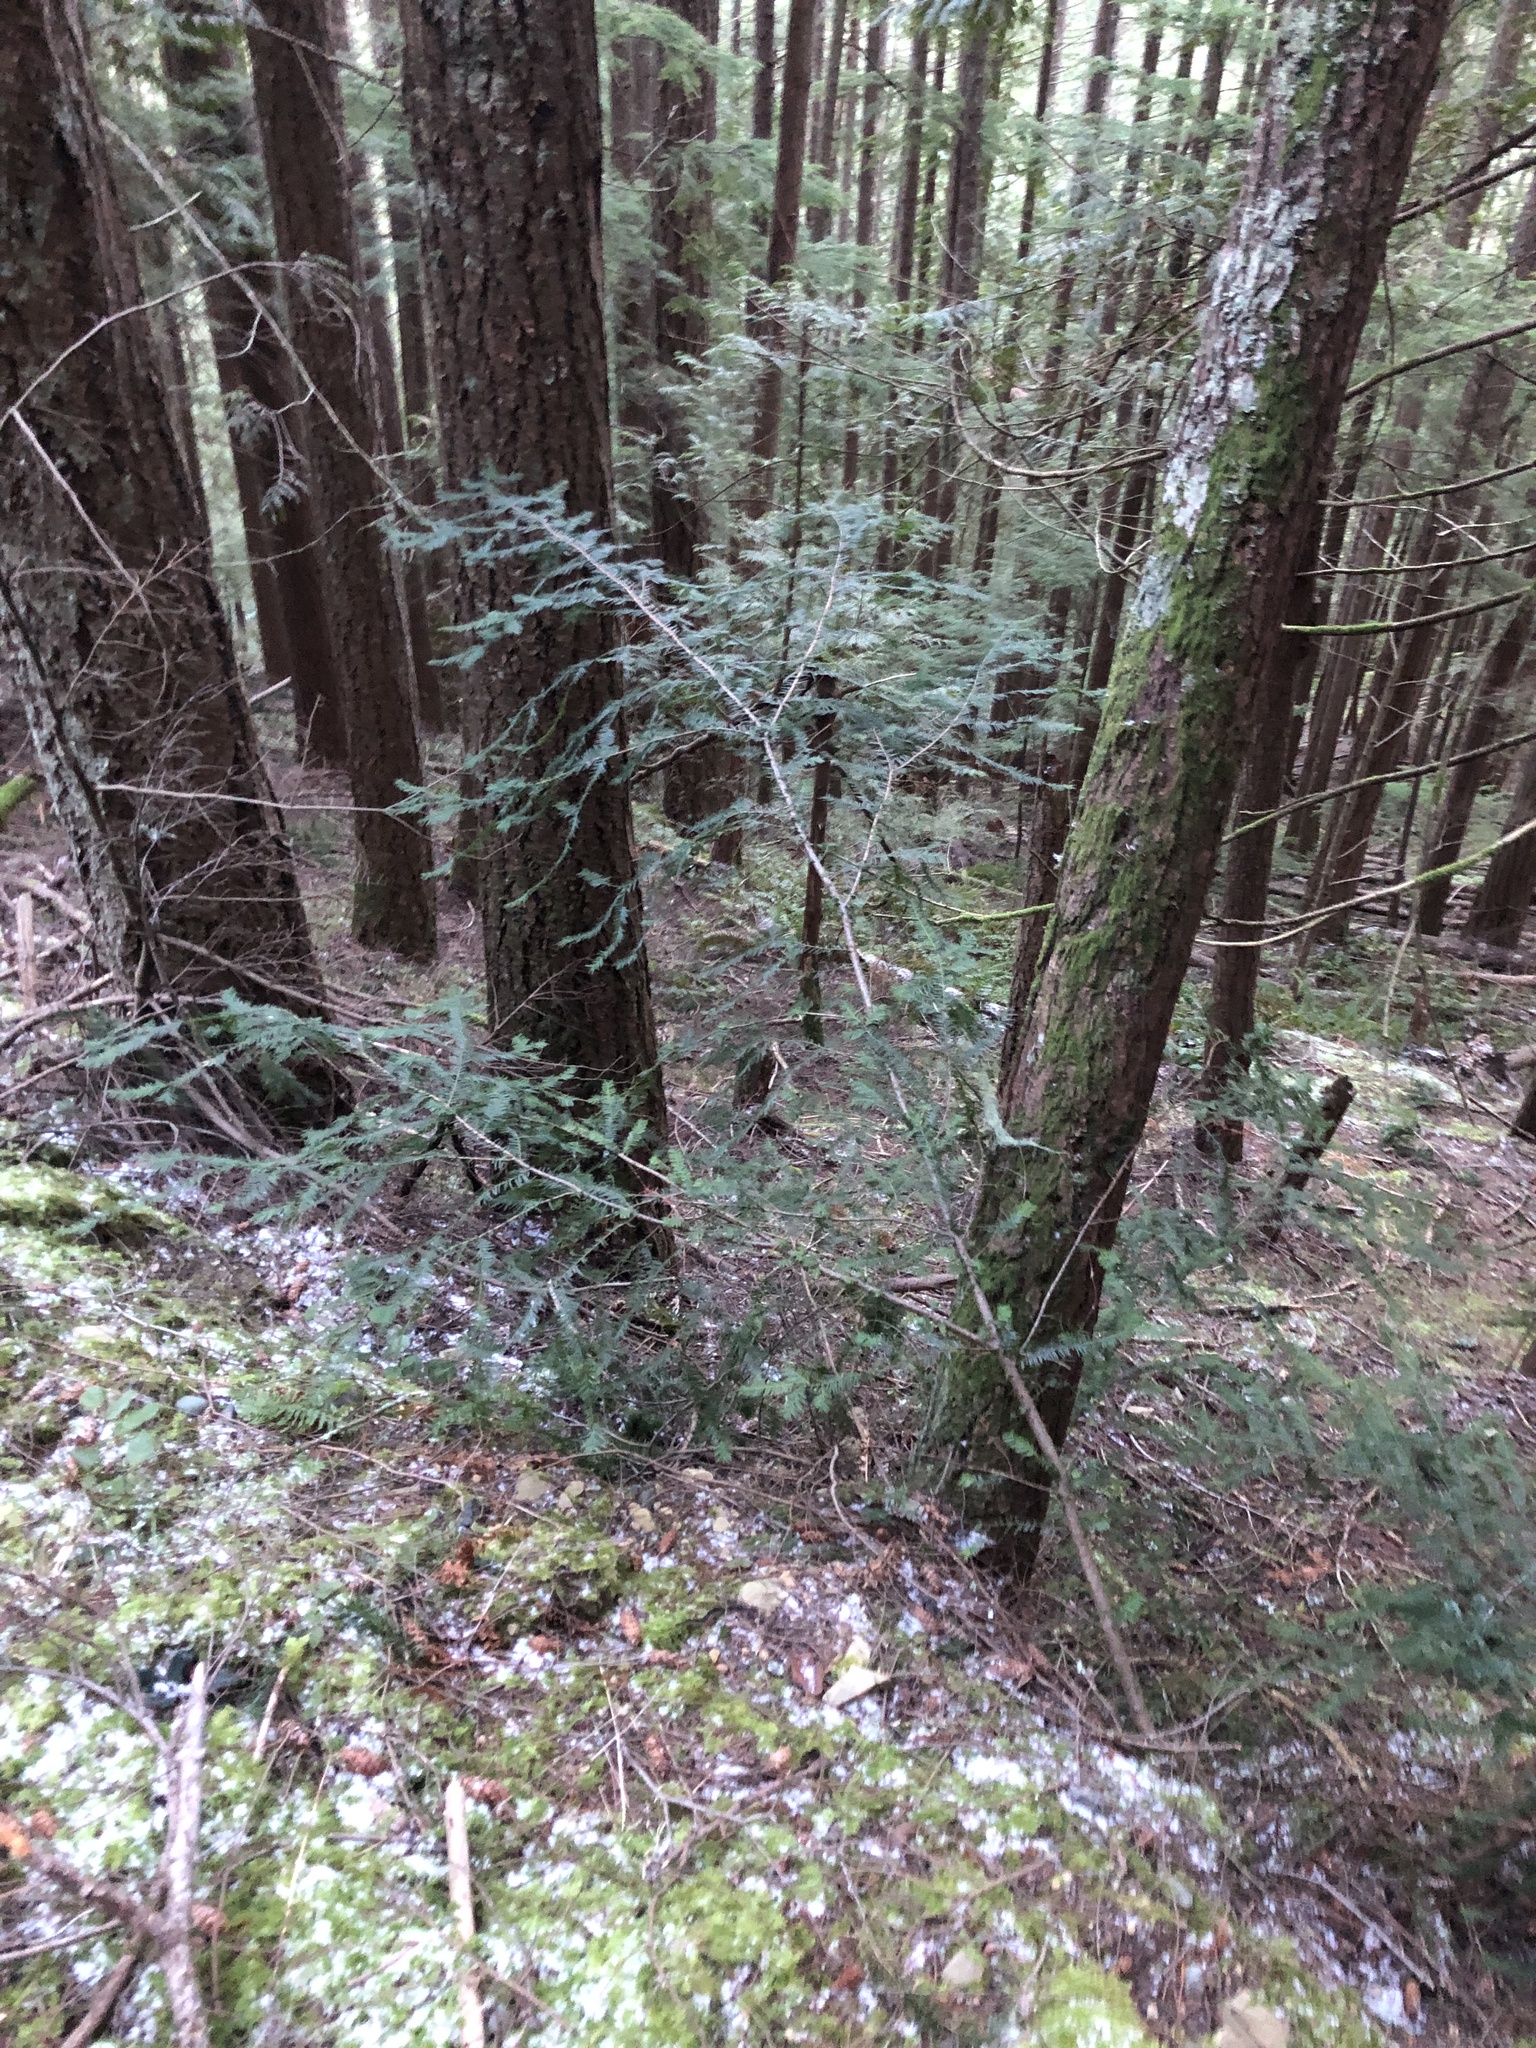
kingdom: Plantae
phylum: Tracheophyta
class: Pinopsida
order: Pinales
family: Taxaceae
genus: Taxus
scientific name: Taxus brevifolia
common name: Pacific yew
